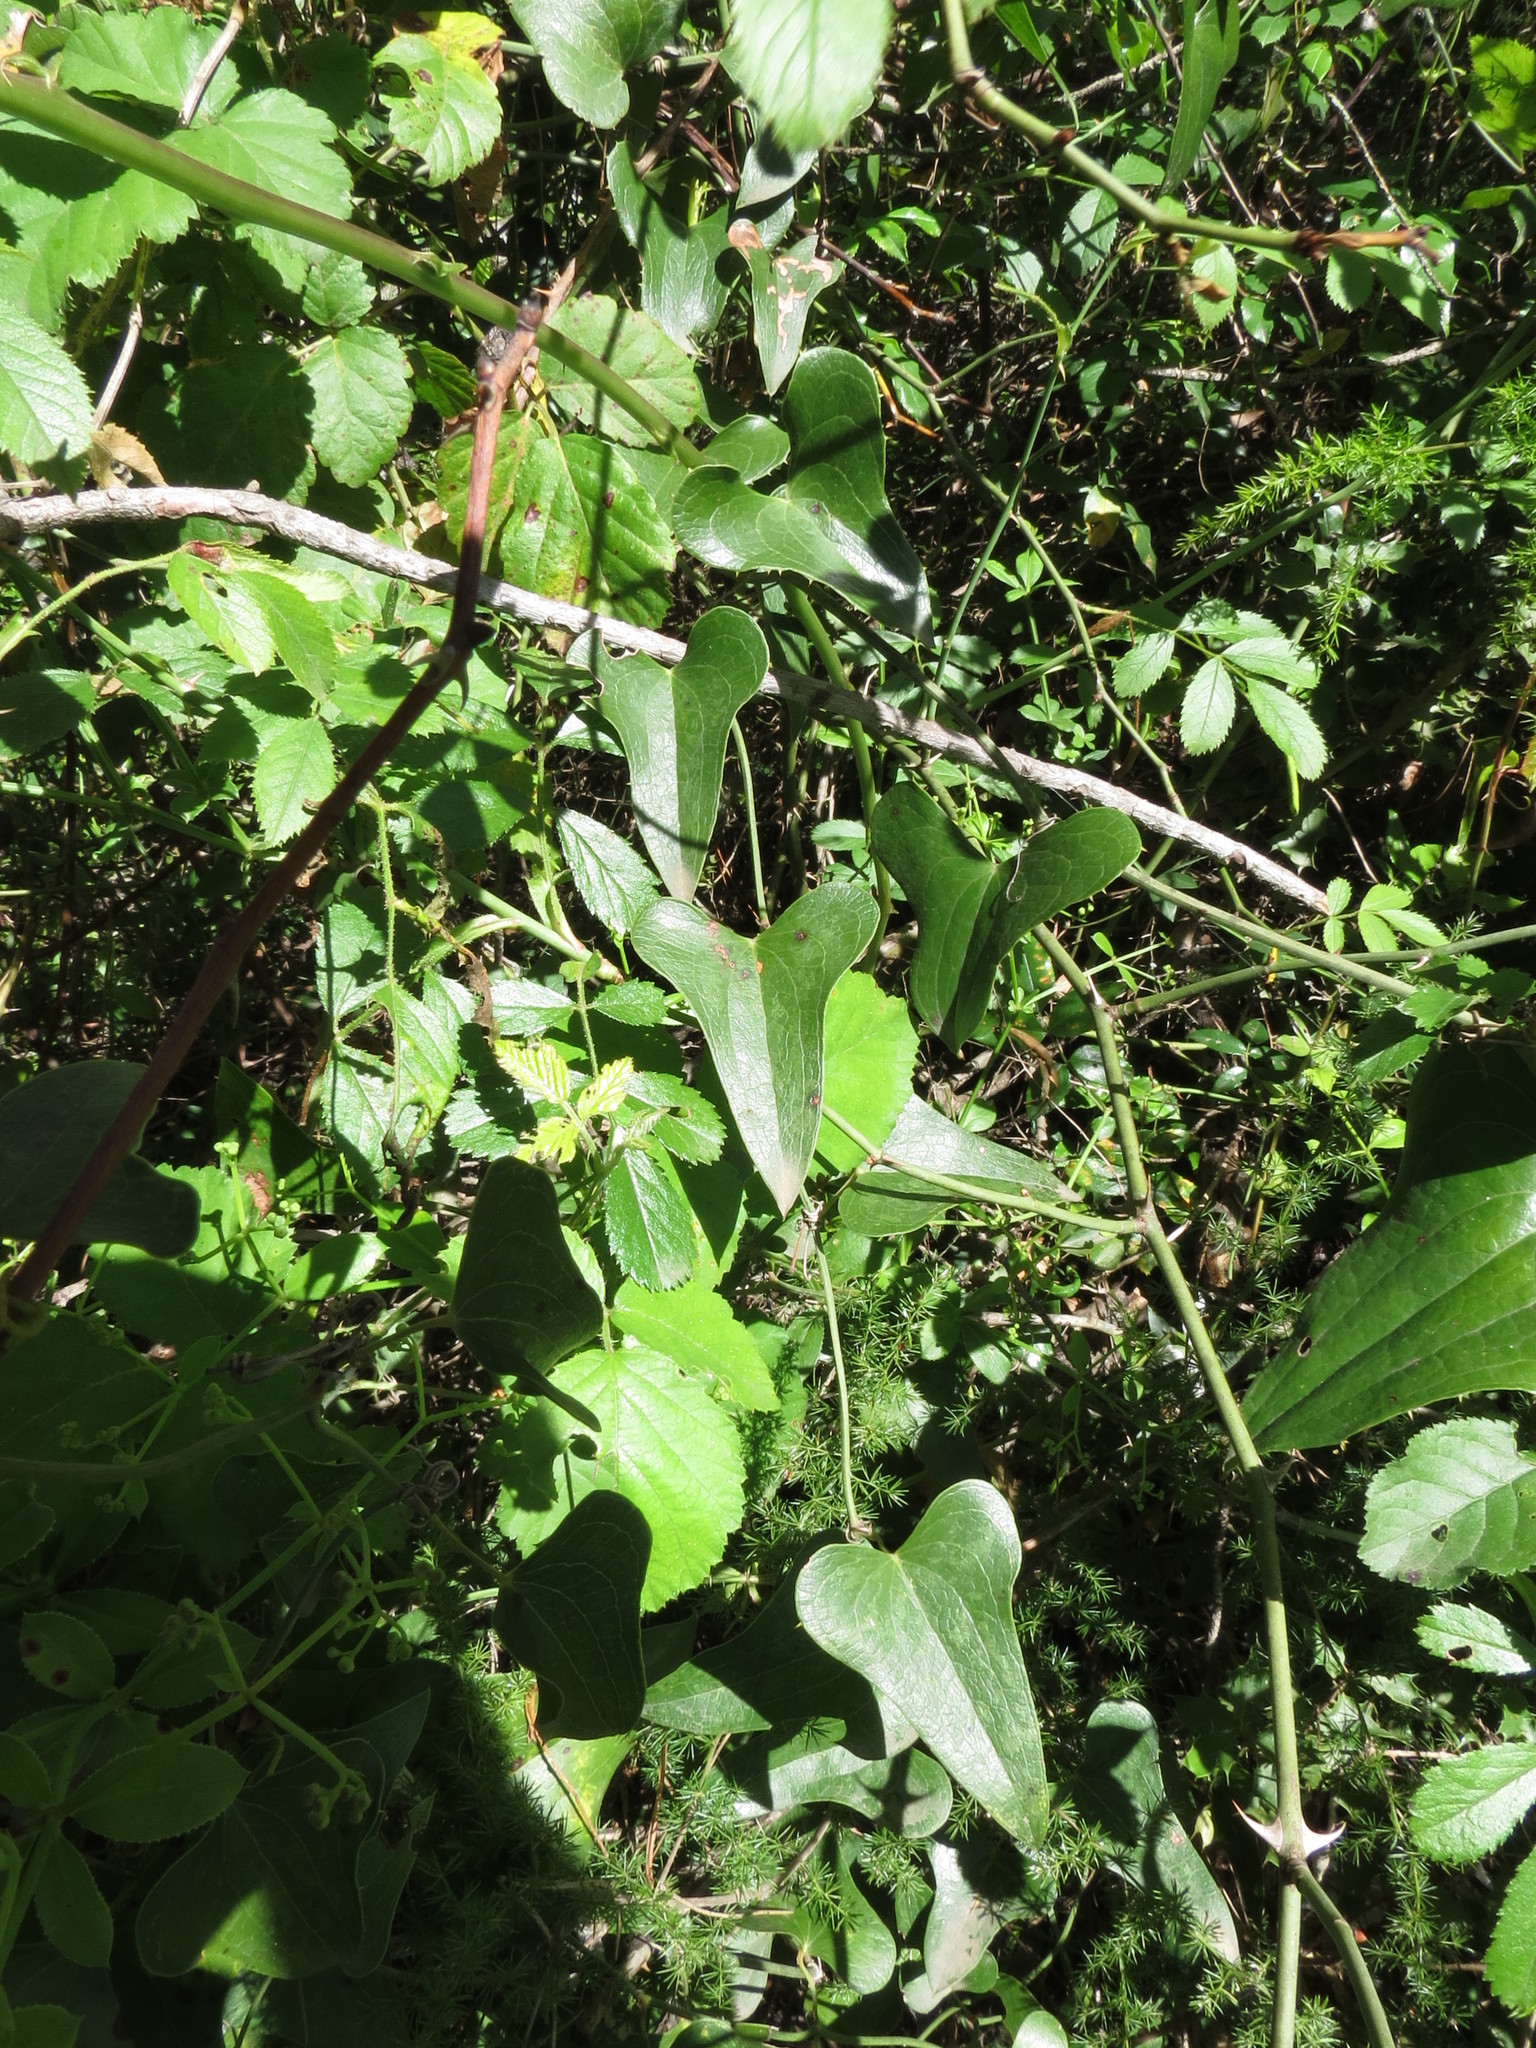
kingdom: Plantae
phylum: Tracheophyta
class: Liliopsida
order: Liliales
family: Smilacaceae
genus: Smilax
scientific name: Smilax aspera
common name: Common smilax
